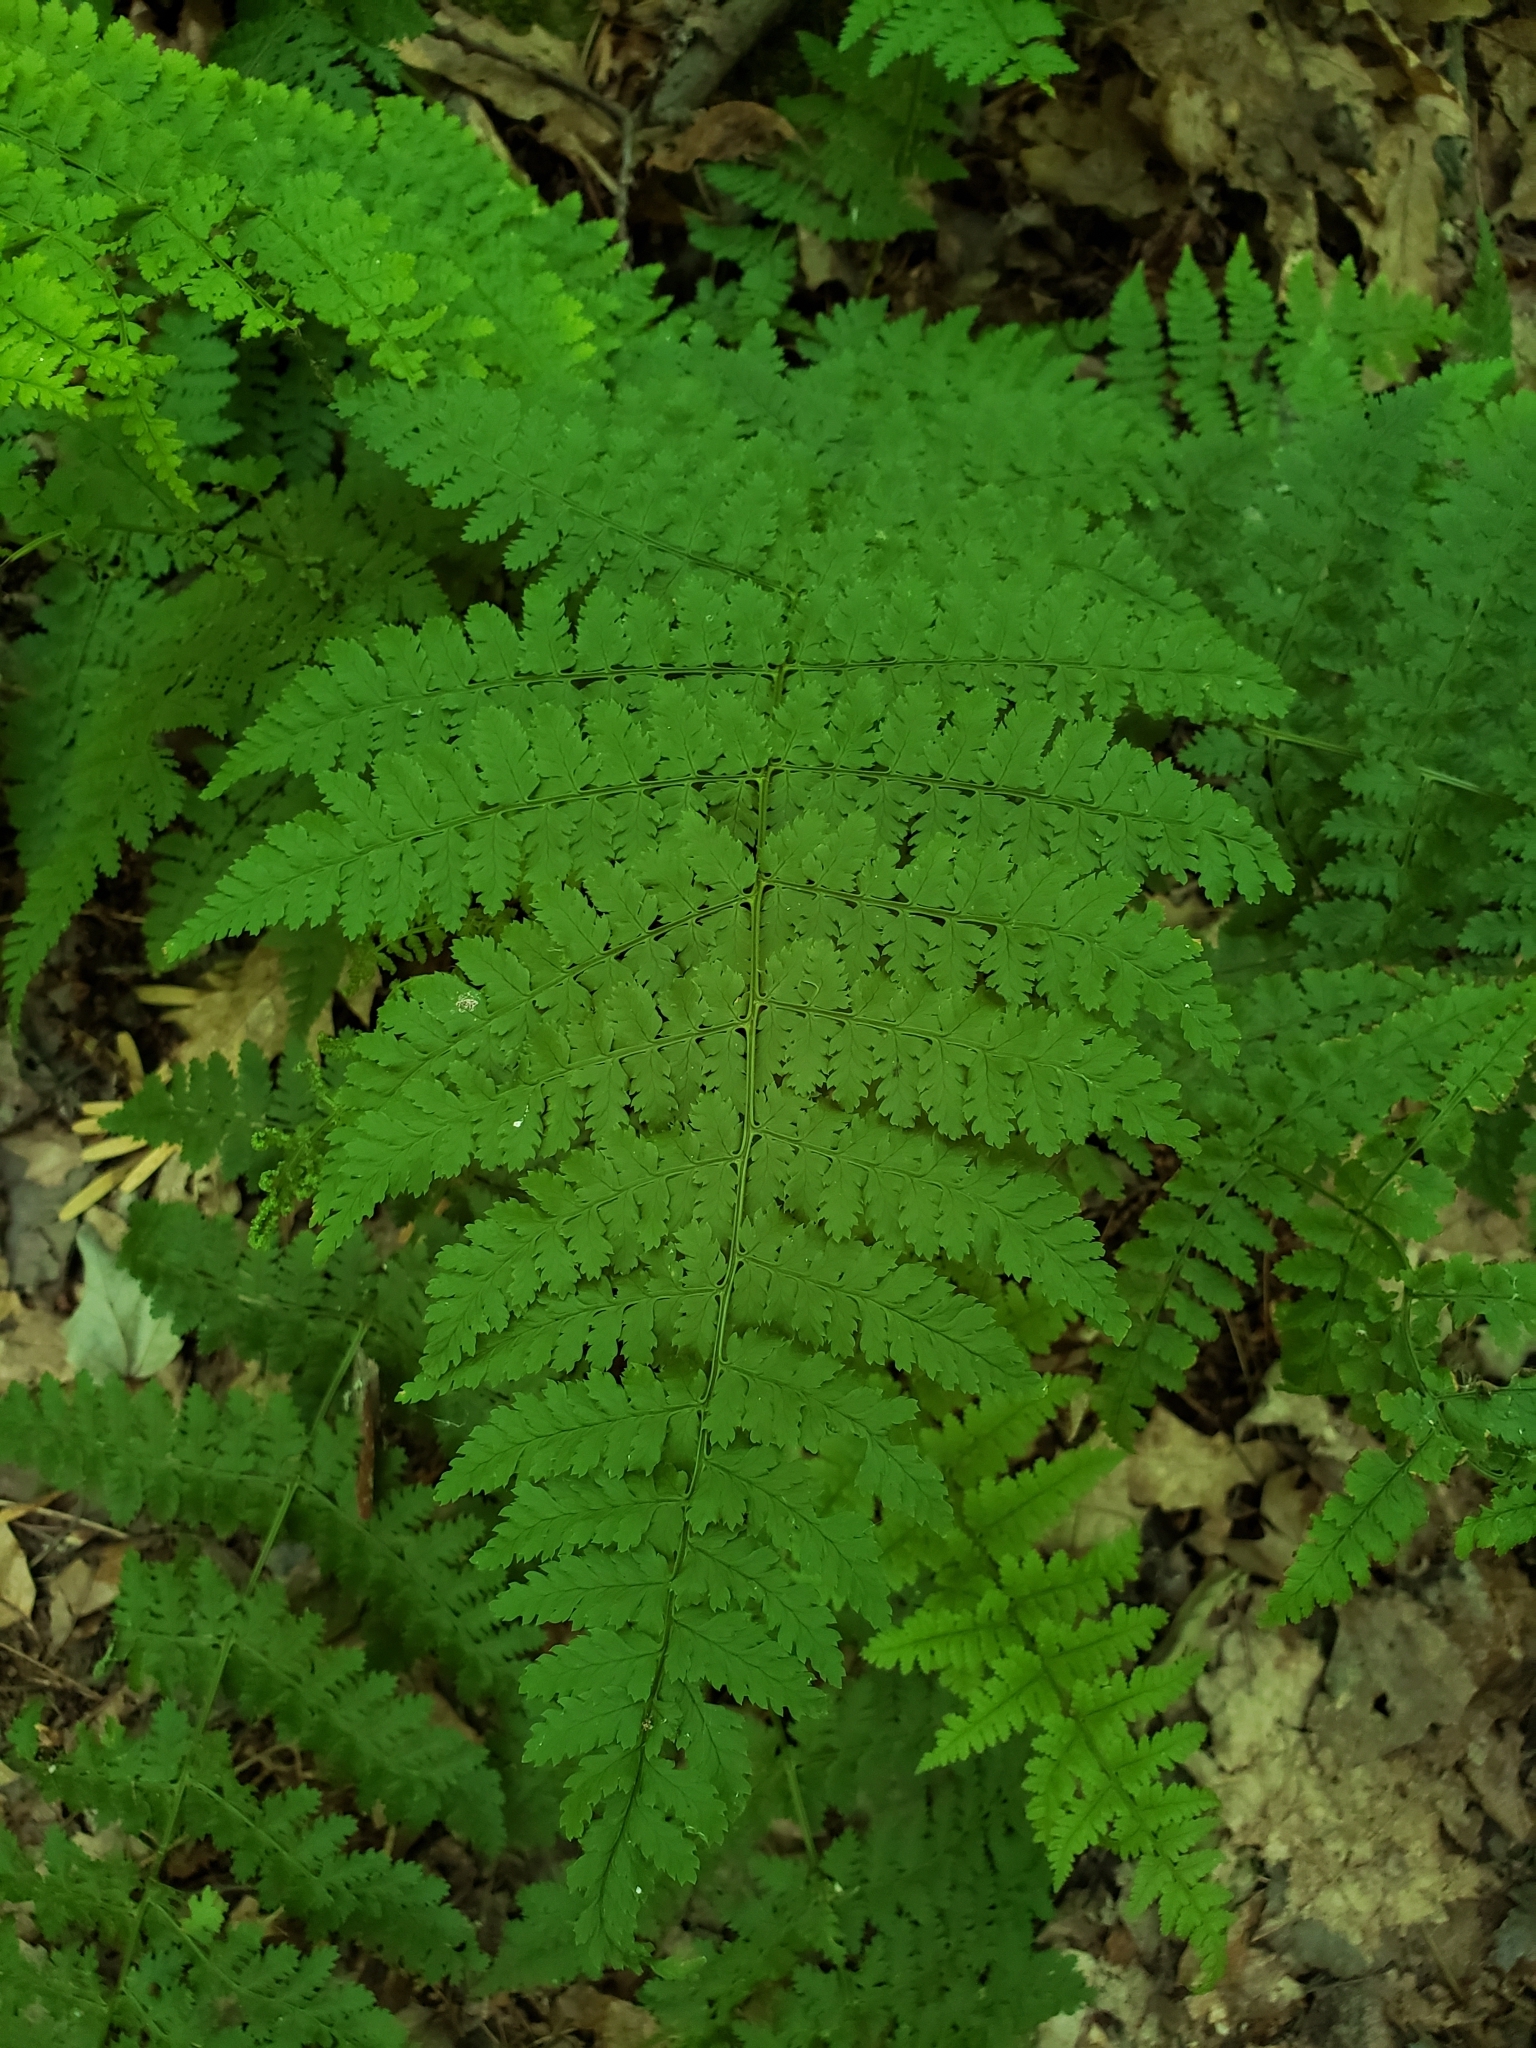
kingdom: Plantae
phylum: Tracheophyta
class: Polypodiopsida
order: Polypodiales
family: Dryopteridaceae
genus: Dryopteris
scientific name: Dryopteris intermedia
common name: Evergreen wood fern
